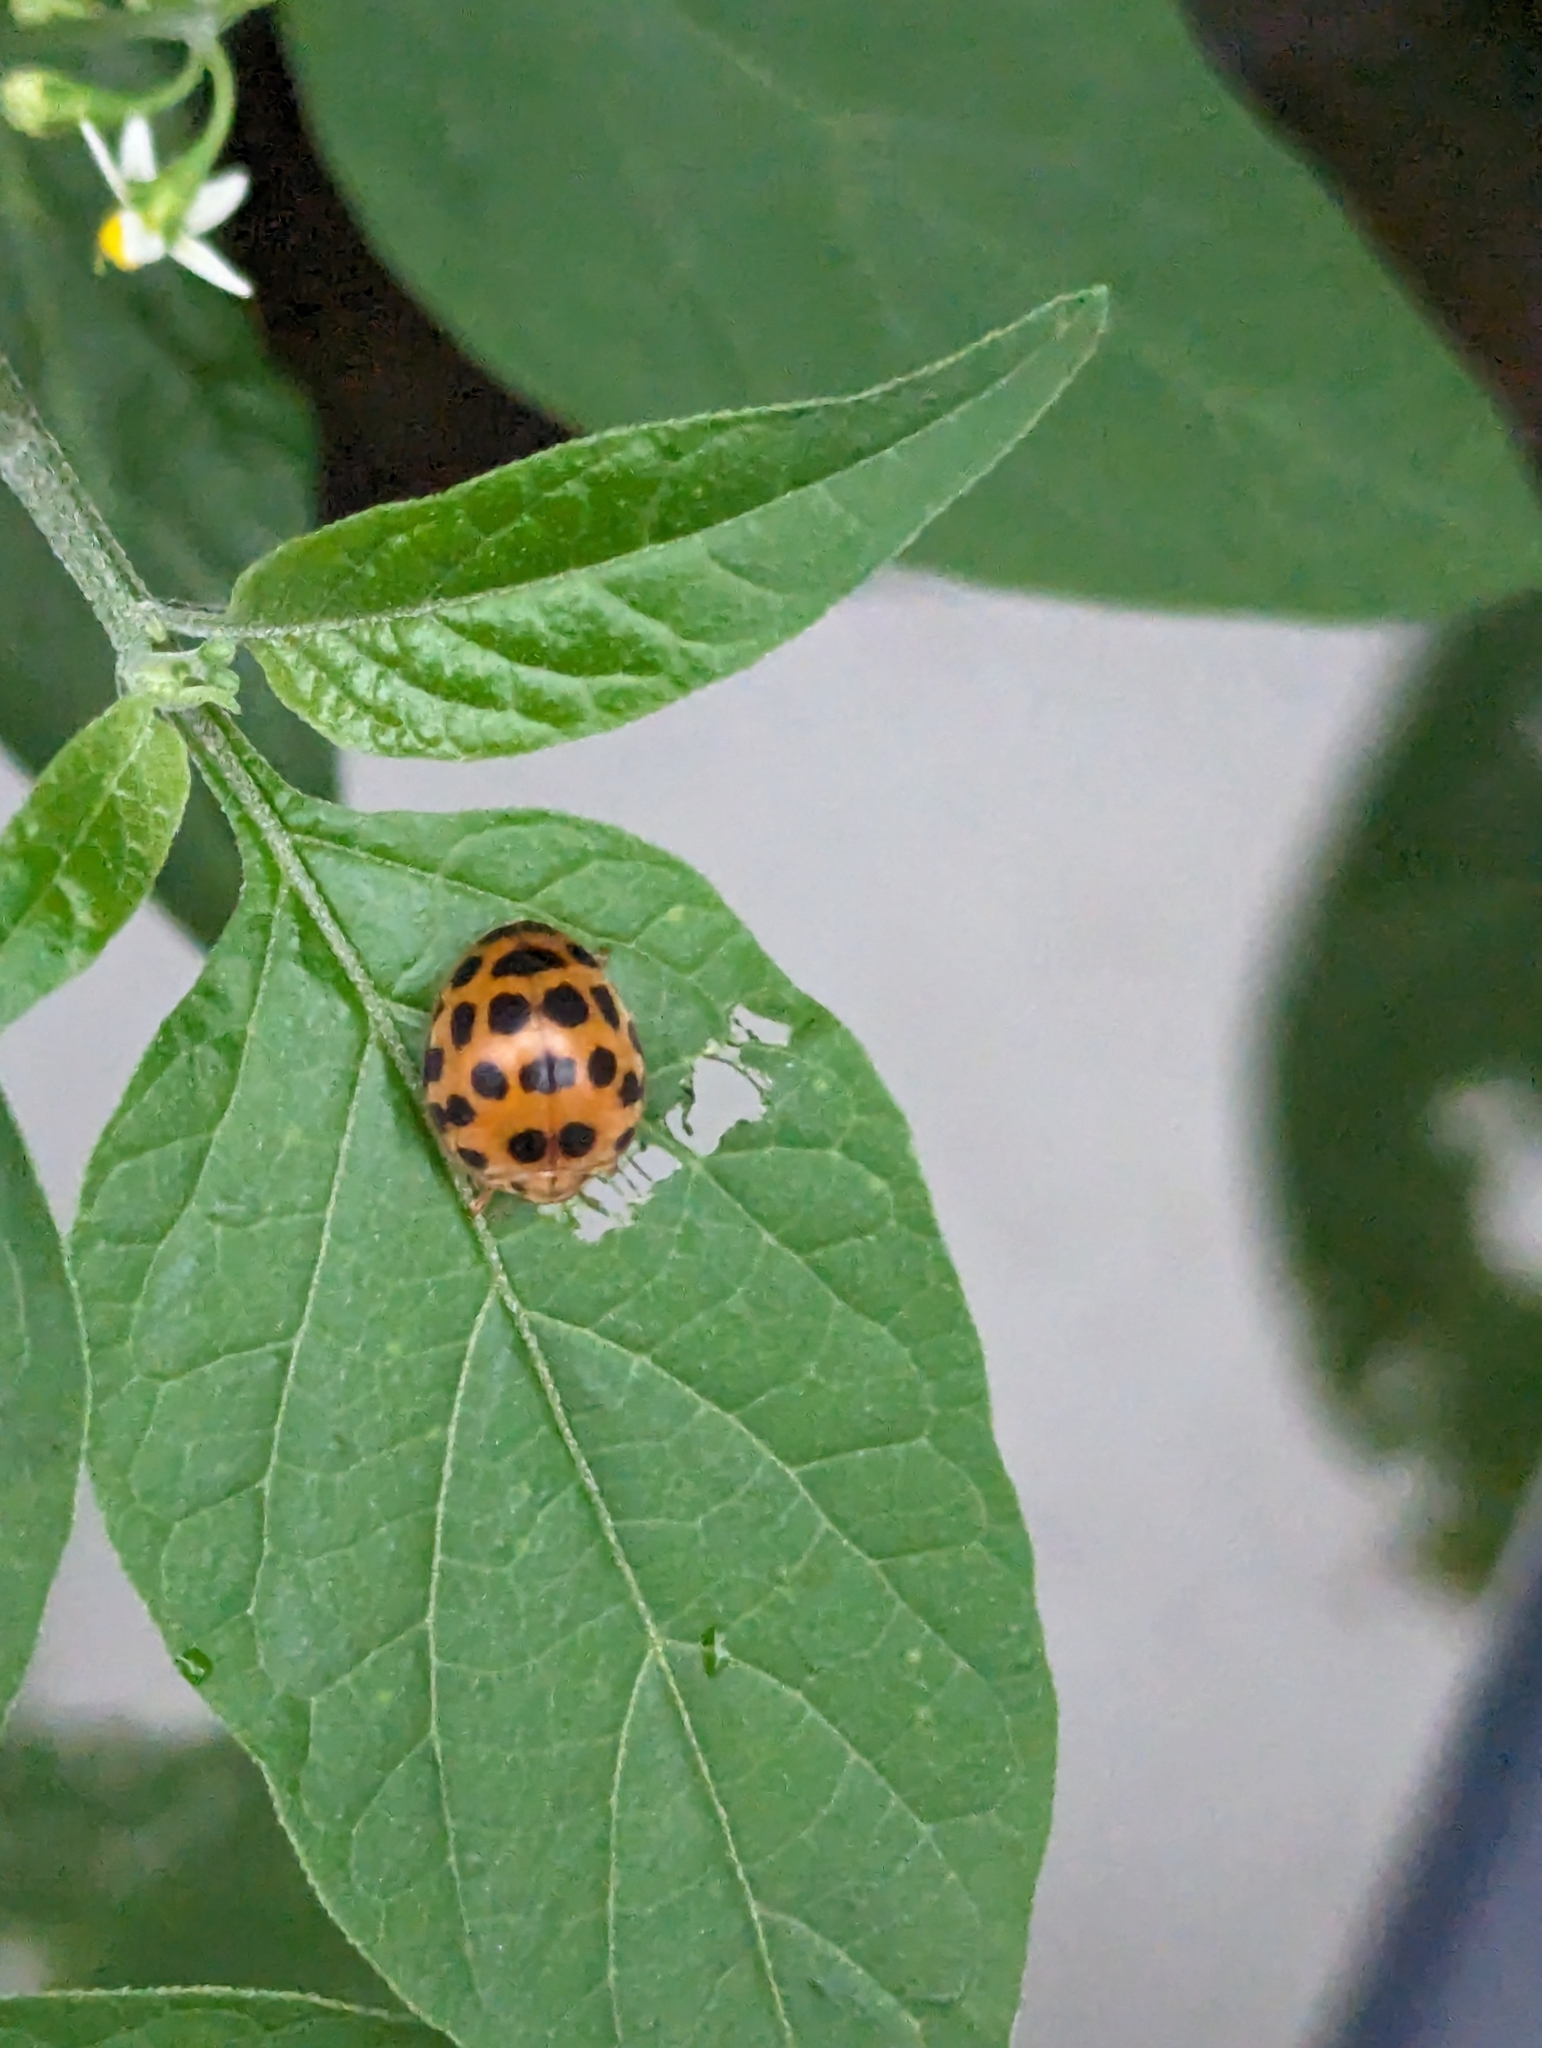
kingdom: Animalia
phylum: Arthropoda
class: Insecta
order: Coleoptera
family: Coccinellidae
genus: Henosepilachna
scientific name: Henosepilachna vigintioctopunctata
